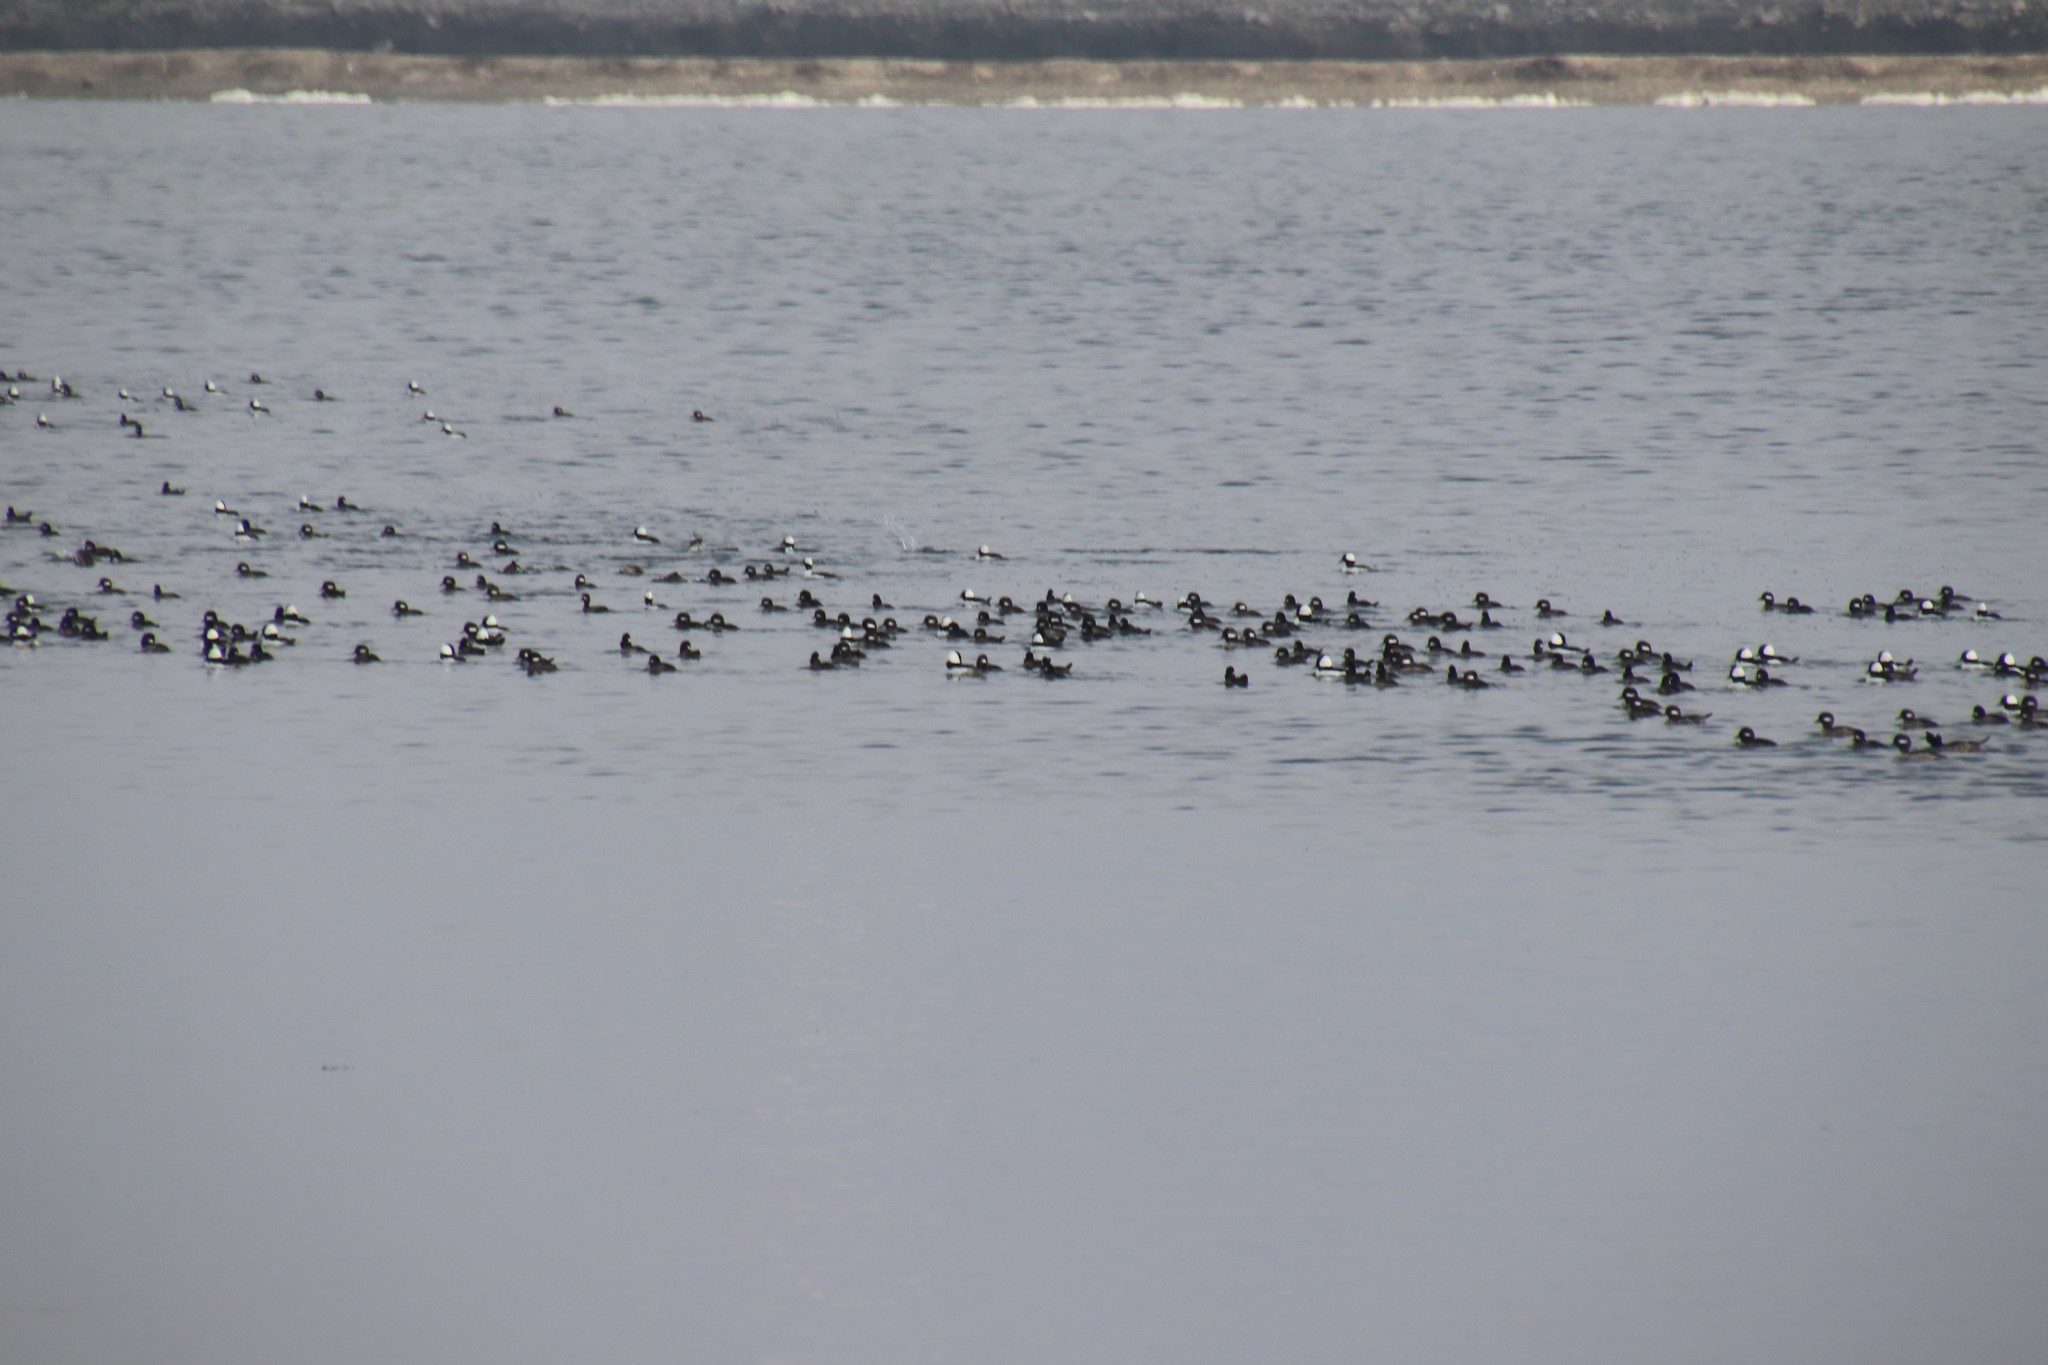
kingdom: Animalia
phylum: Chordata
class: Aves
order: Anseriformes
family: Anatidae
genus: Bucephala
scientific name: Bucephala albeola
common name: Bufflehead
